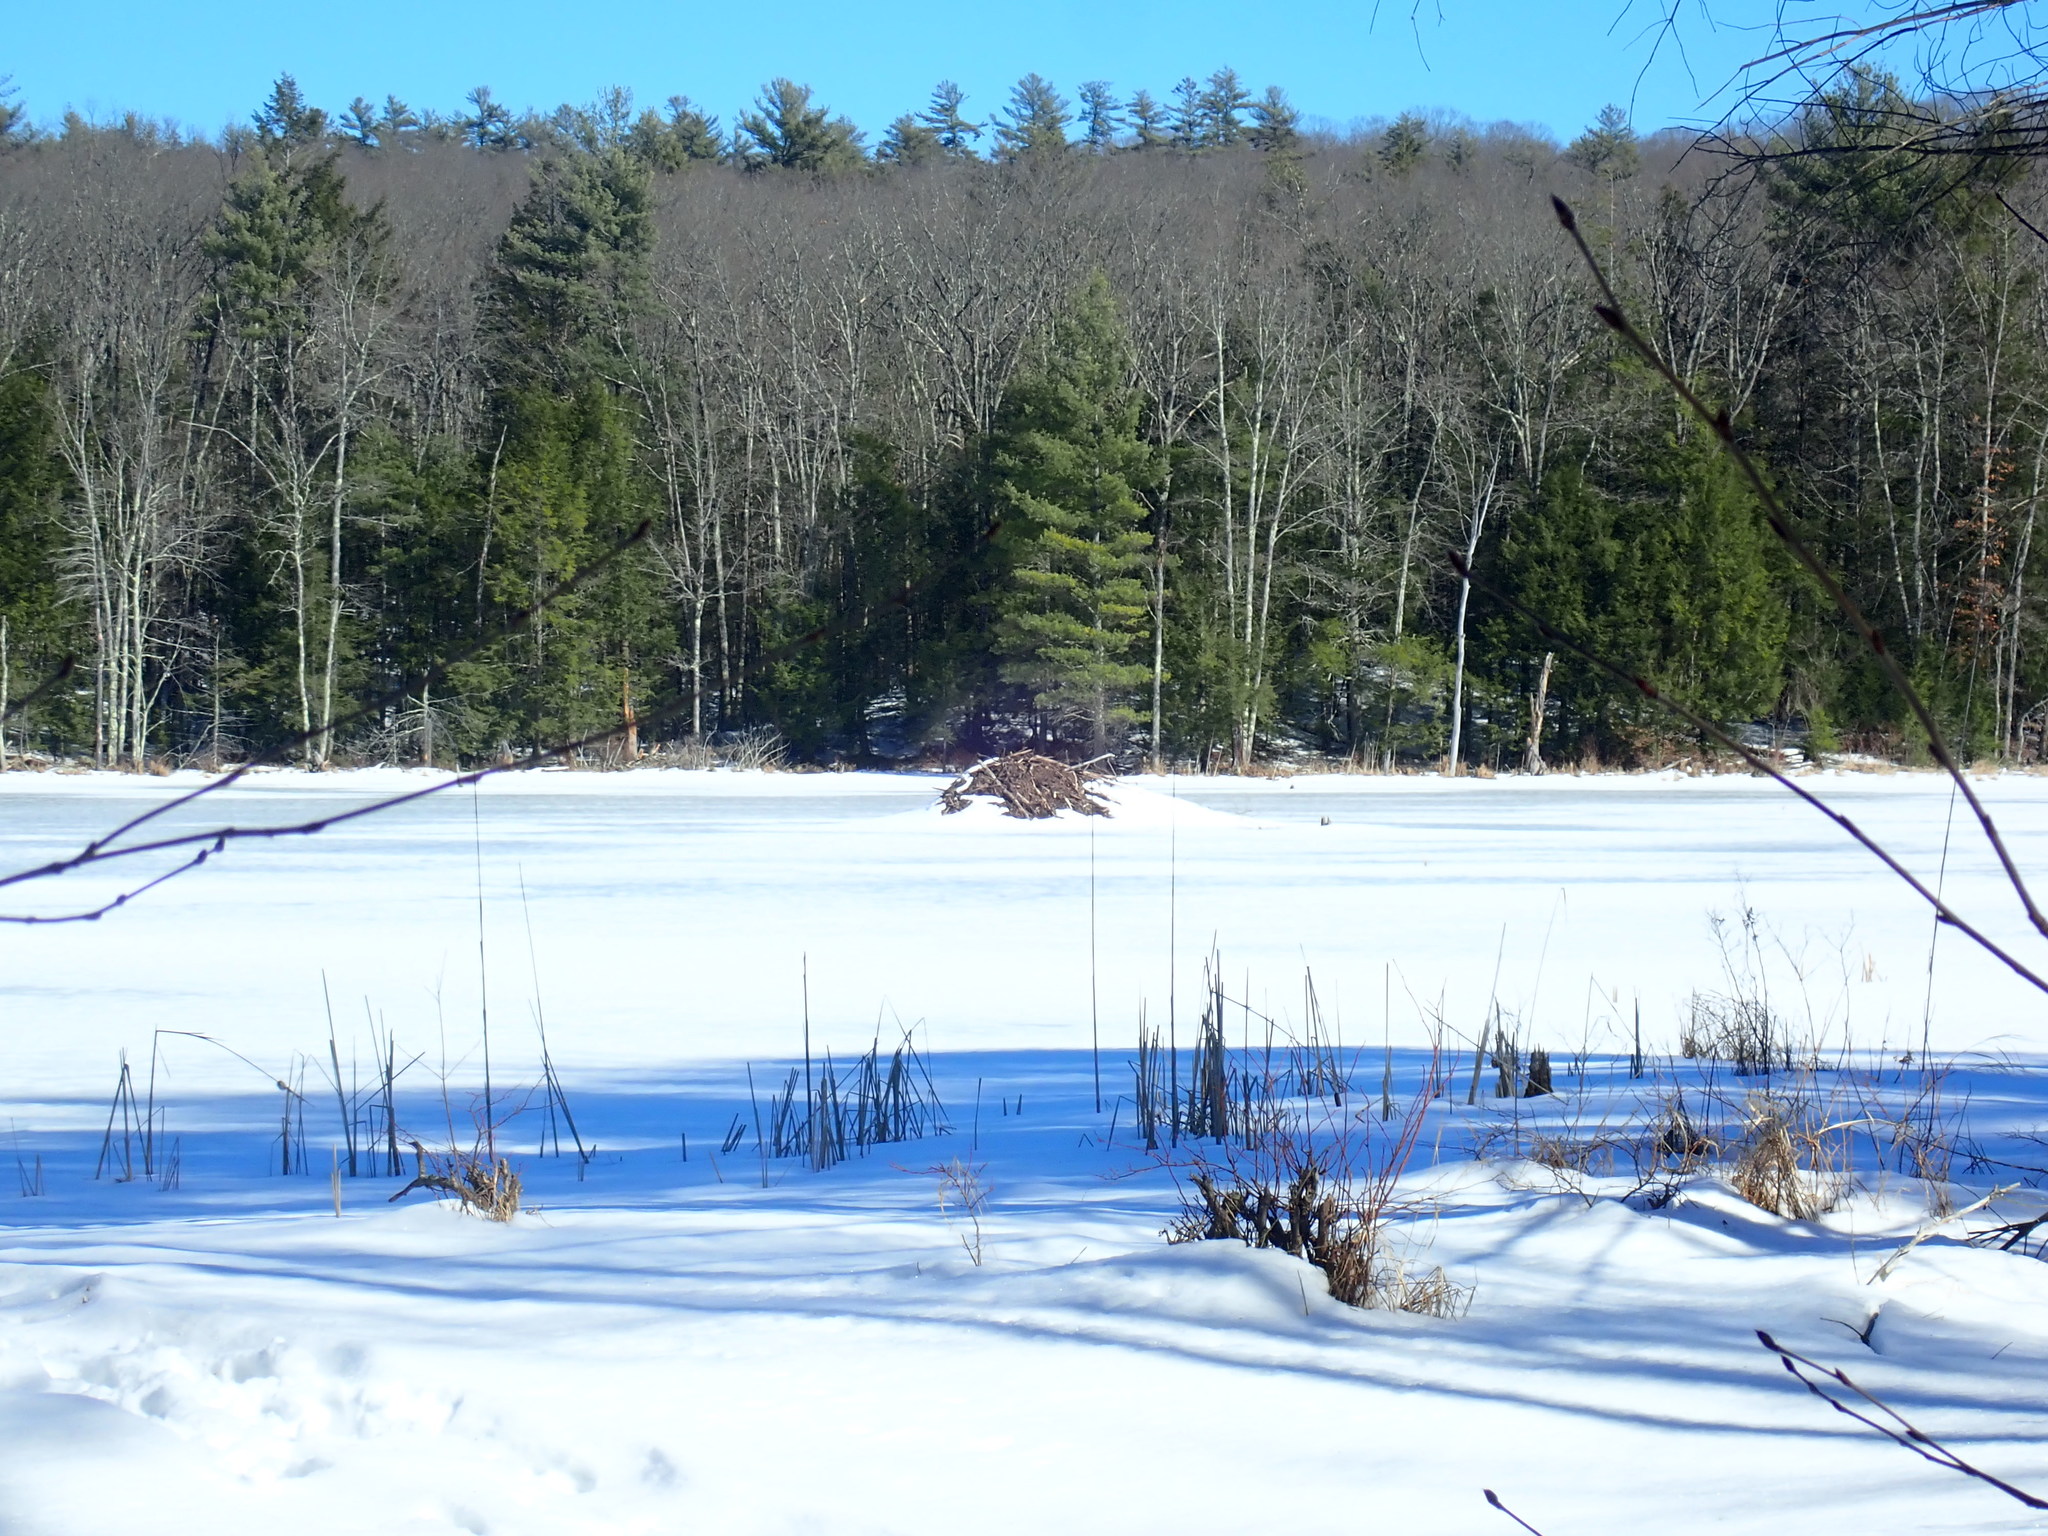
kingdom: Animalia
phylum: Chordata
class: Mammalia
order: Rodentia
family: Castoridae
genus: Castor
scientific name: Castor canadensis
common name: American beaver
